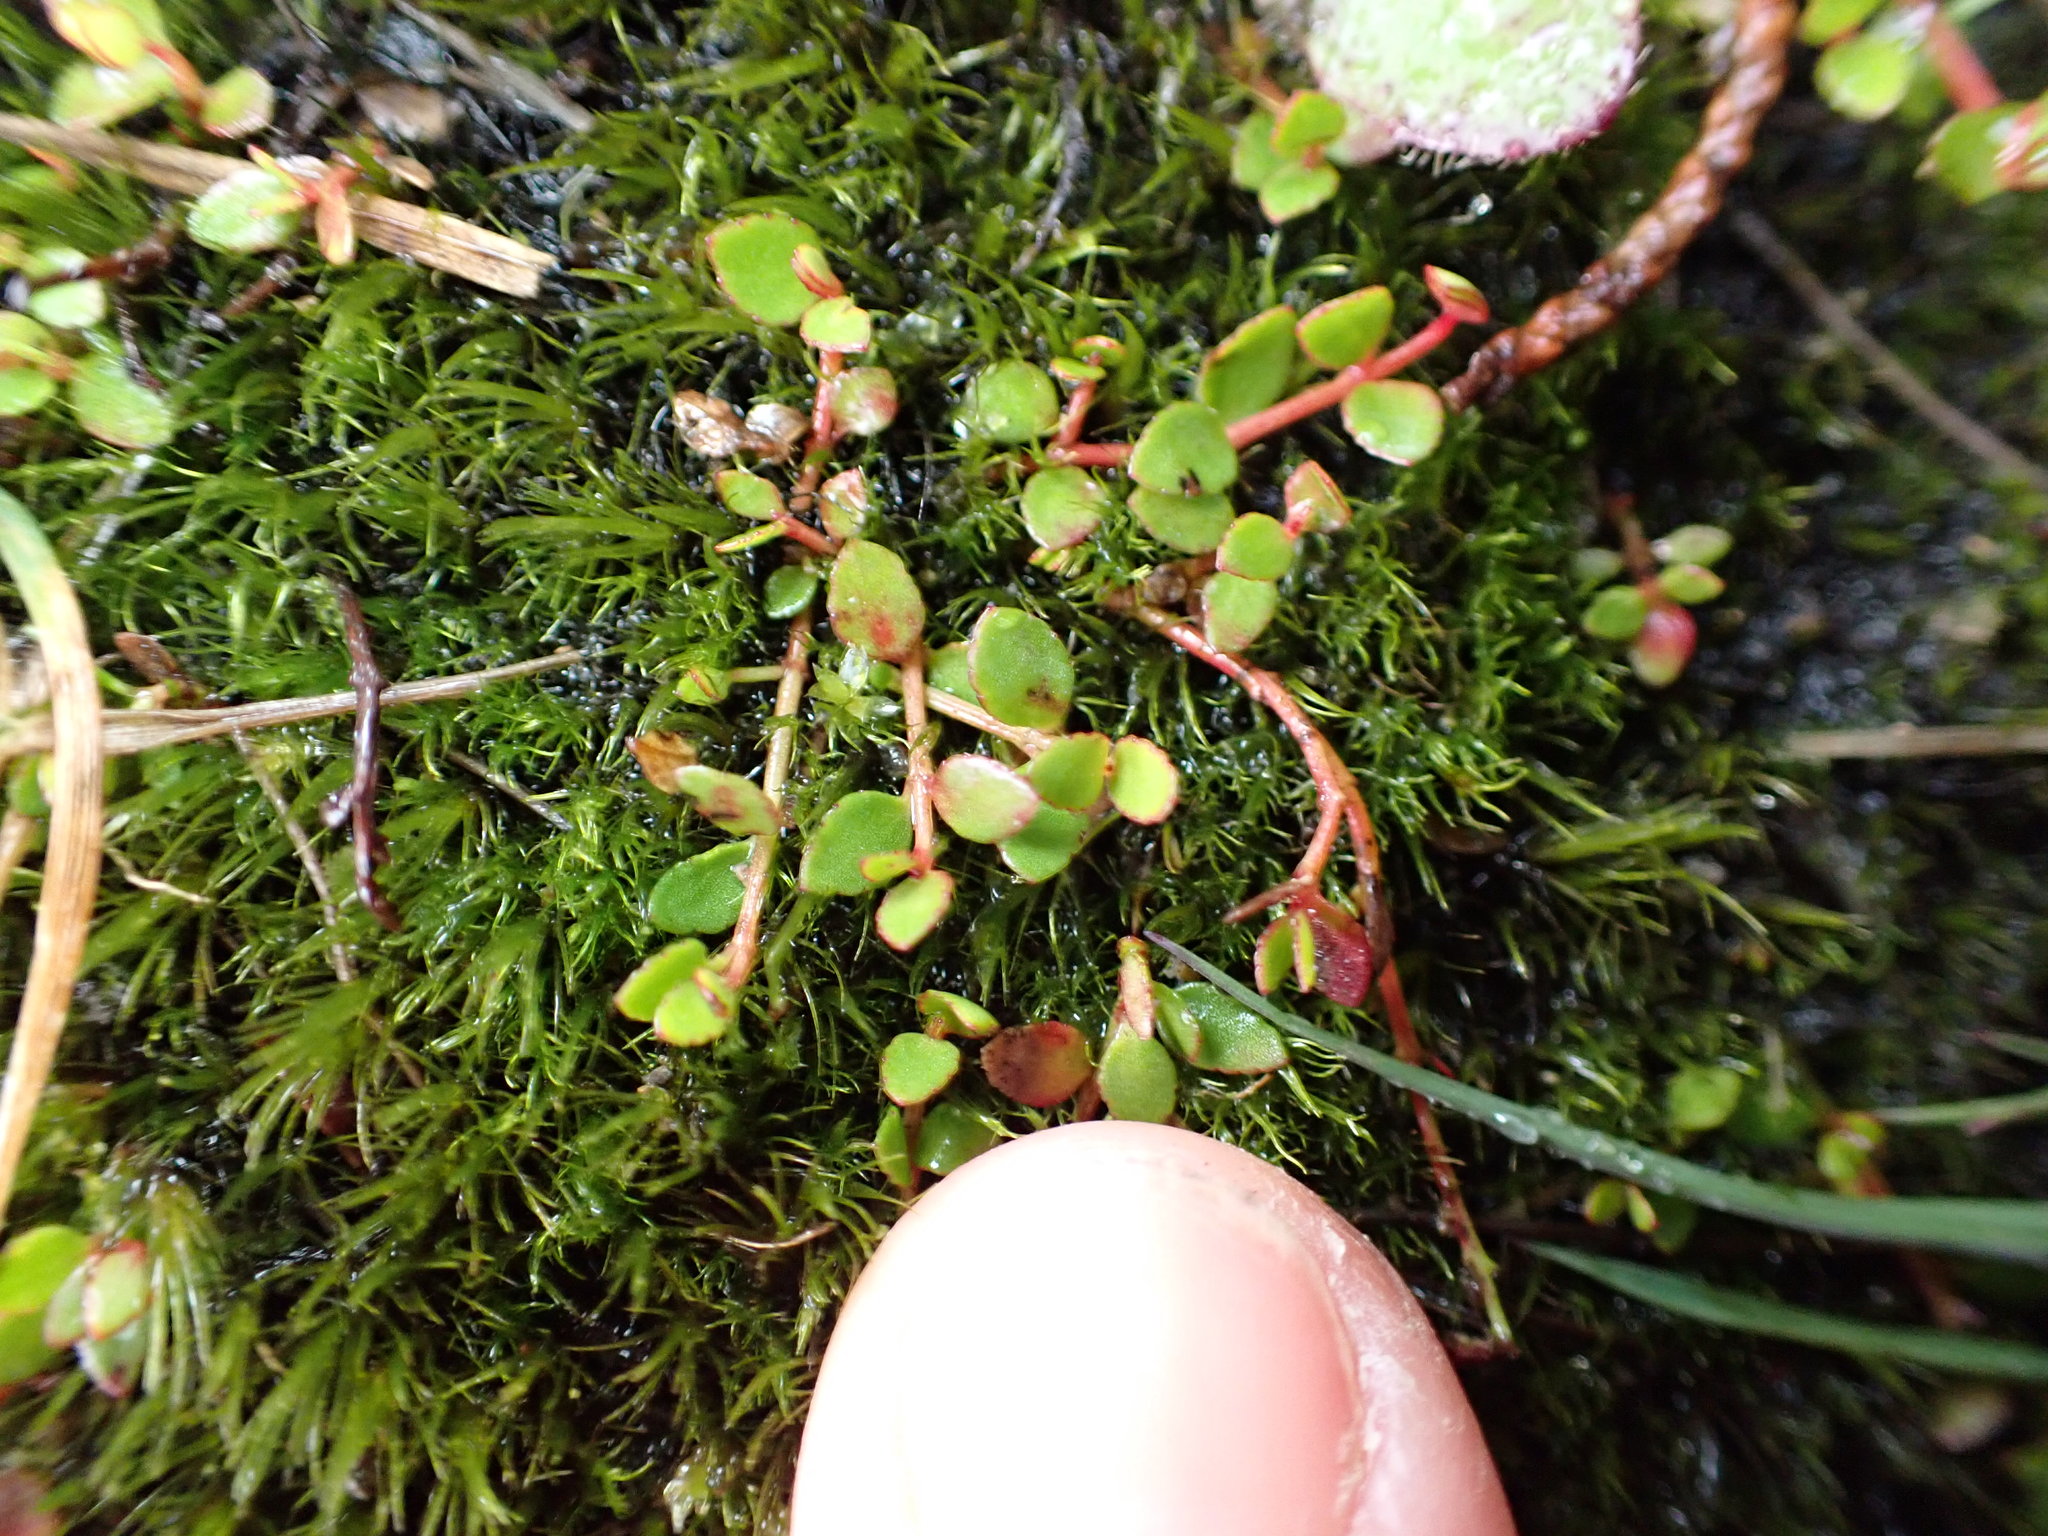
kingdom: Plantae
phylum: Tracheophyta
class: Magnoliopsida
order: Saxifragales
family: Haloragaceae
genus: Gonocarpus
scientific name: Gonocarpus micranthus
